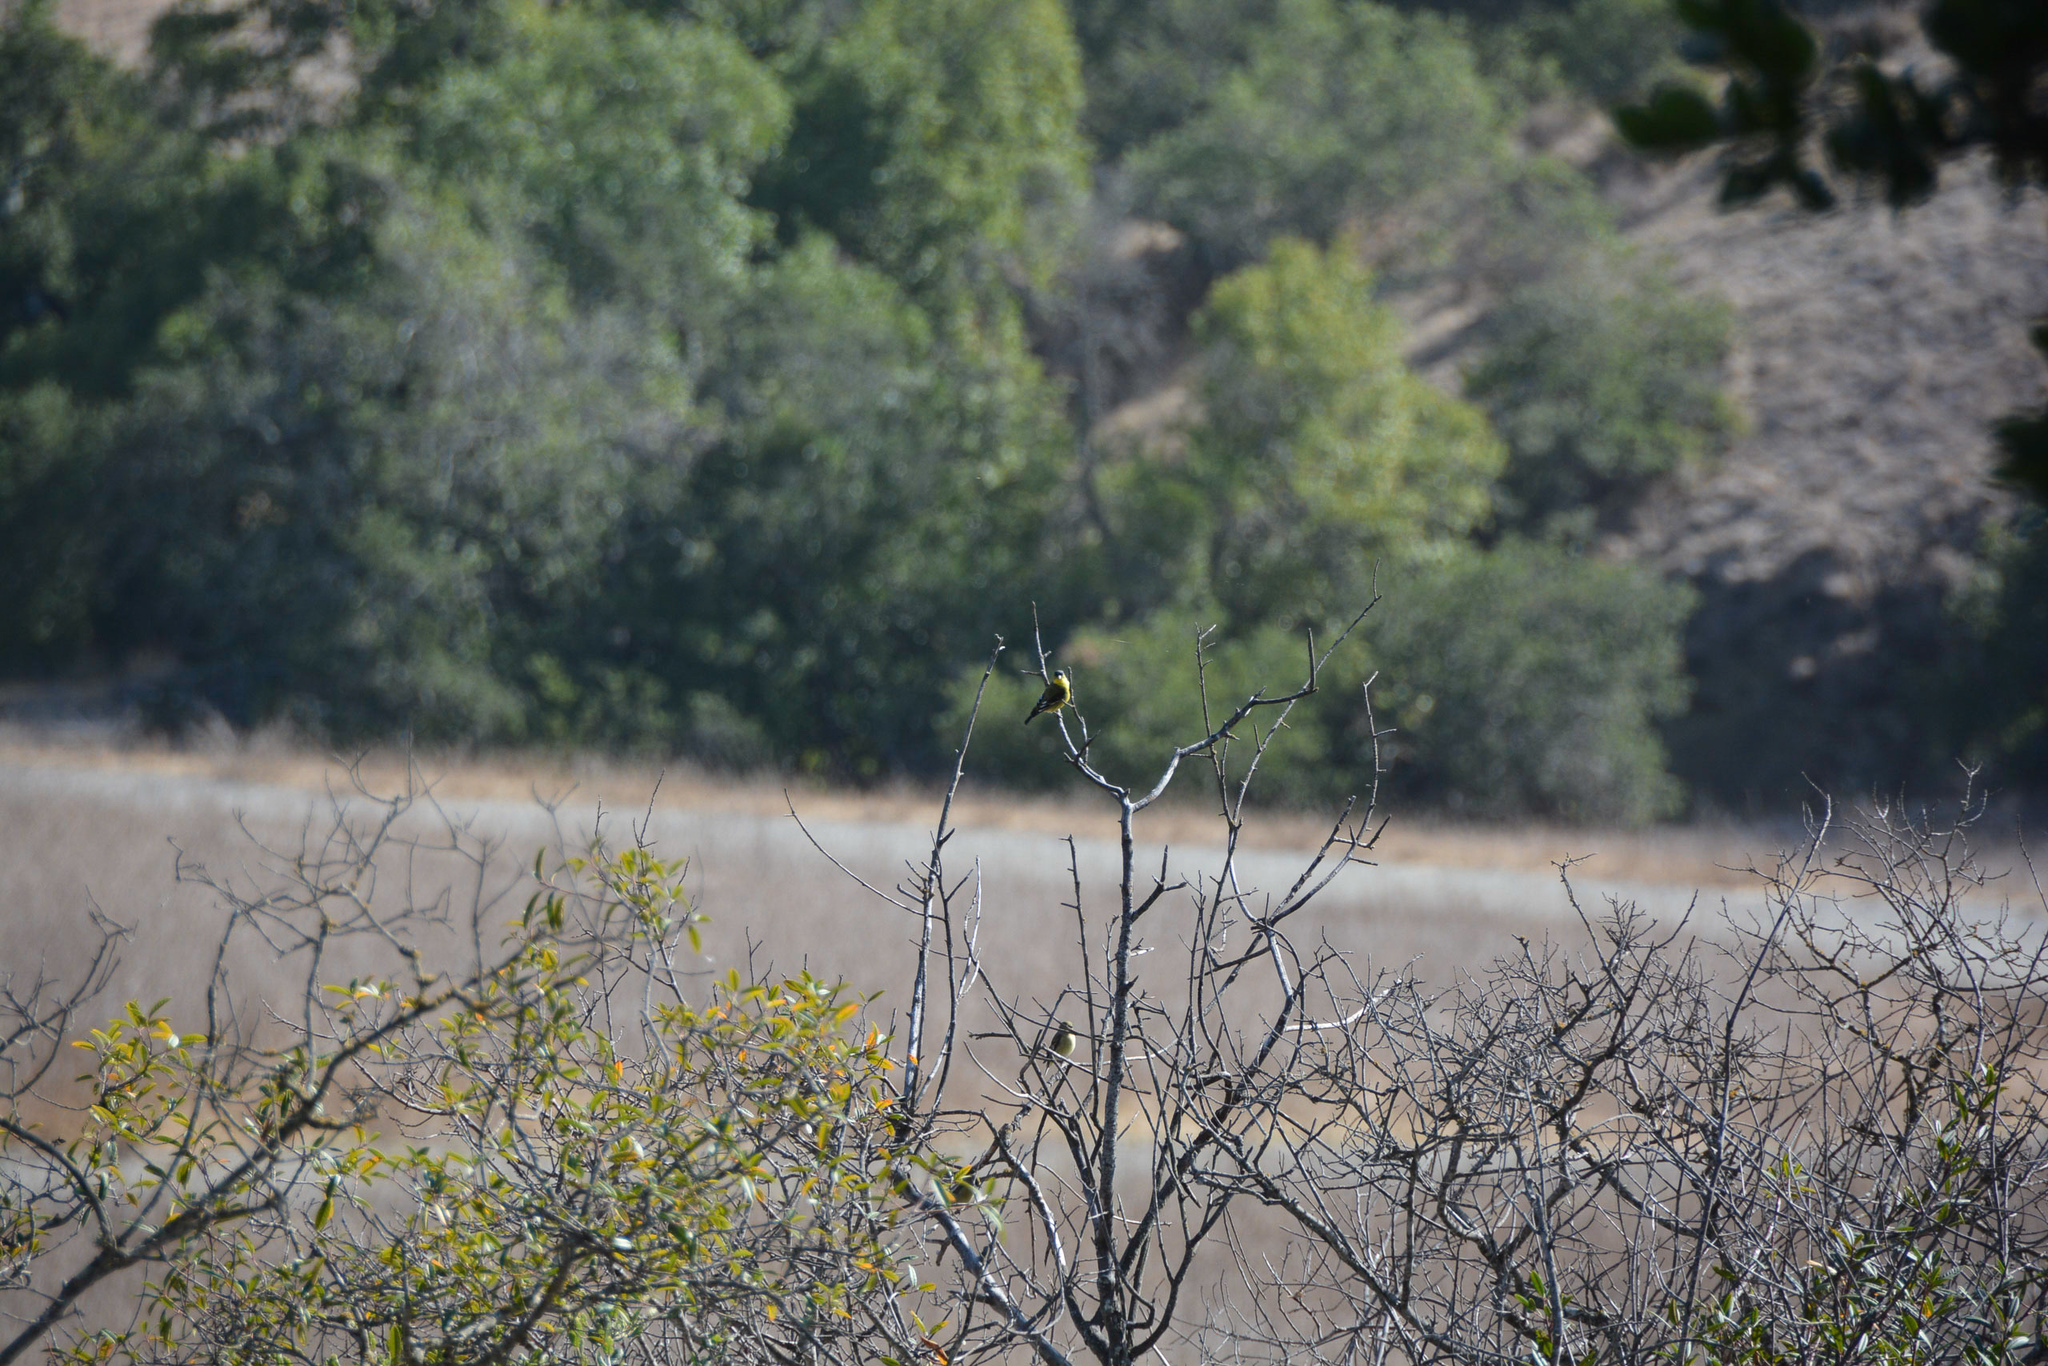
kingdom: Animalia
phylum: Chordata
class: Aves
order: Passeriformes
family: Fringillidae
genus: Spinus
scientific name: Spinus psaltria
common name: Lesser goldfinch
